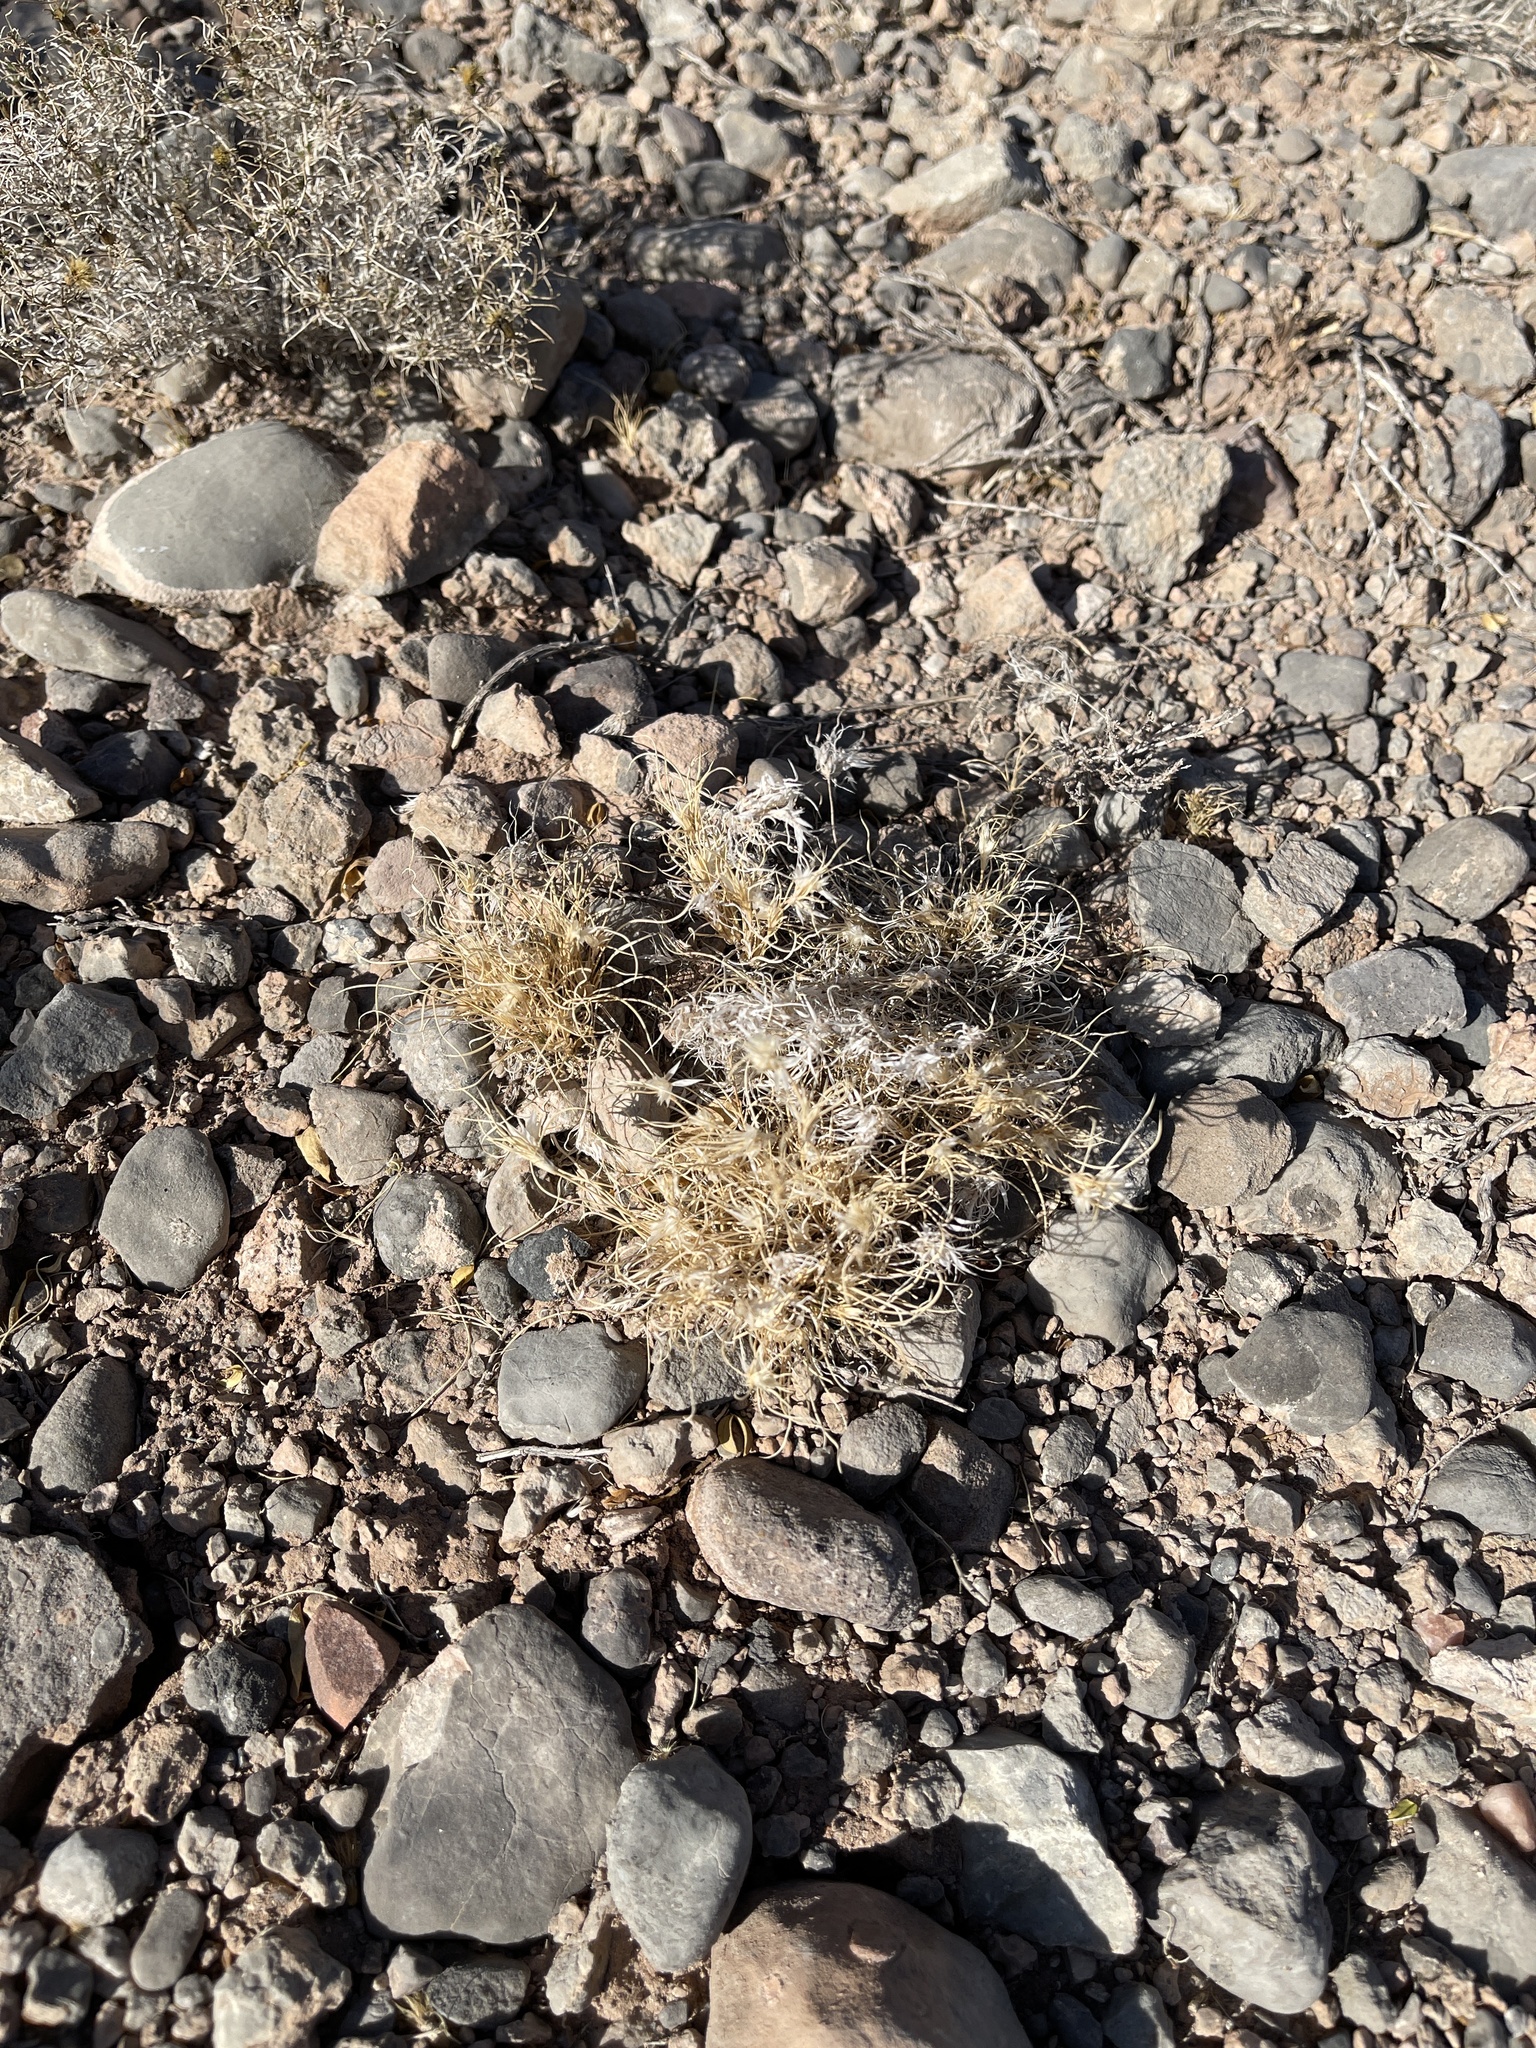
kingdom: Plantae
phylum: Tracheophyta
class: Liliopsida
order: Poales
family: Poaceae
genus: Dasyochloa
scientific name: Dasyochloa pulchella
